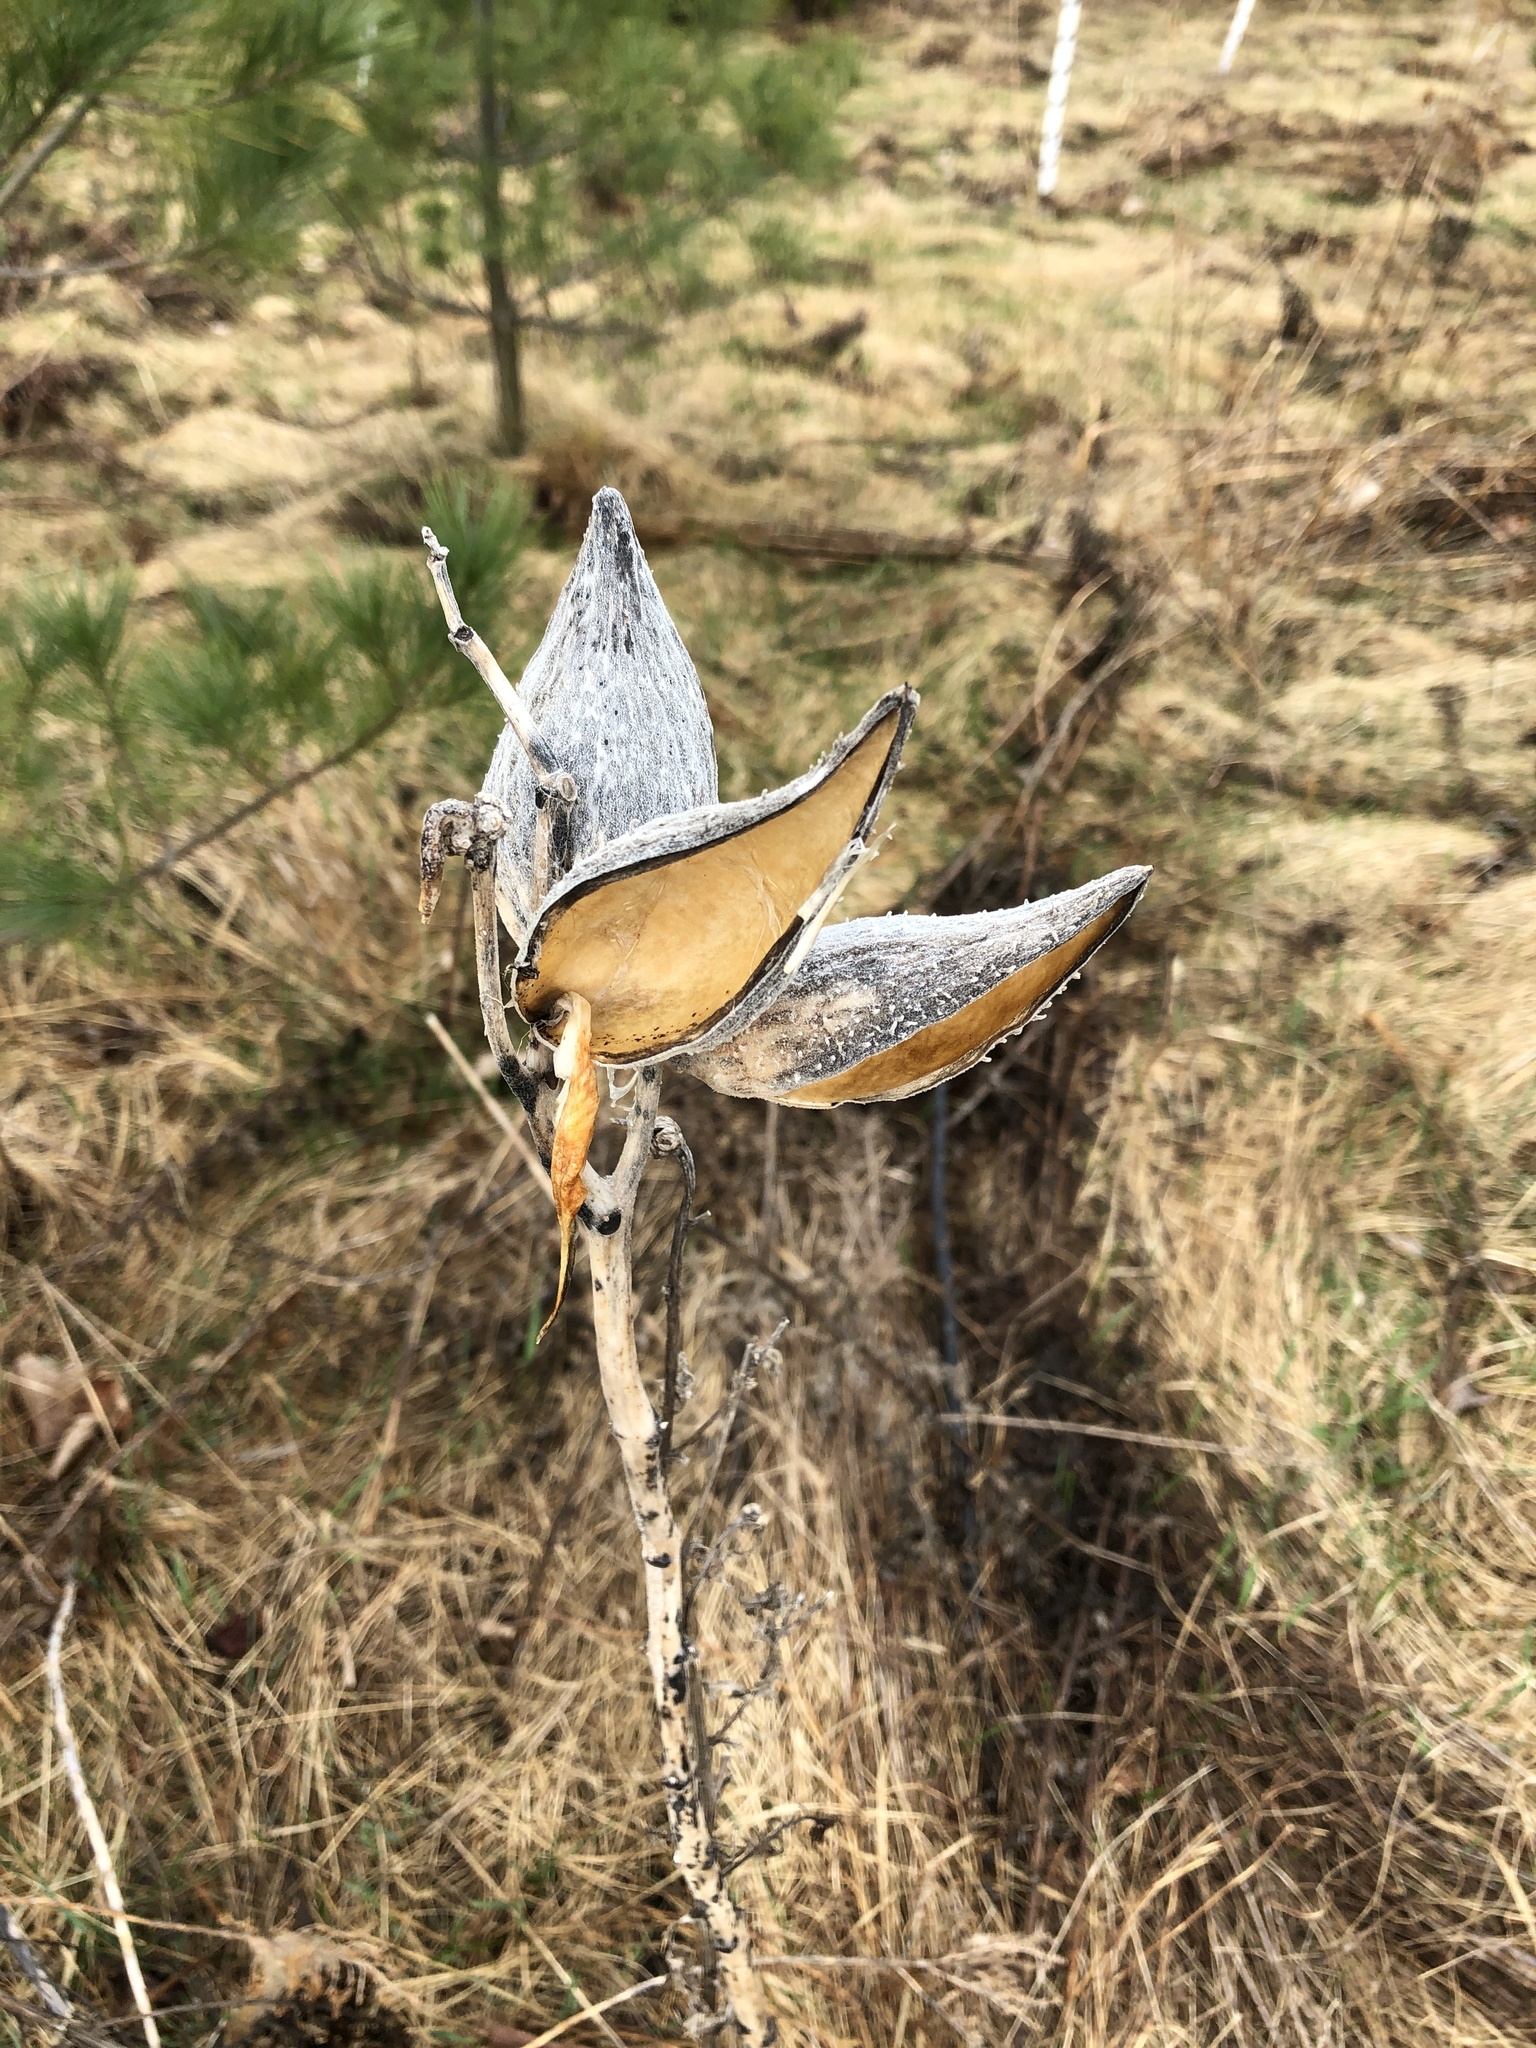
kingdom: Plantae
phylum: Tracheophyta
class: Magnoliopsida
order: Gentianales
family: Apocynaceae
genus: Asclepias
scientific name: Asclepias syriaca
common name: Common milkweed
